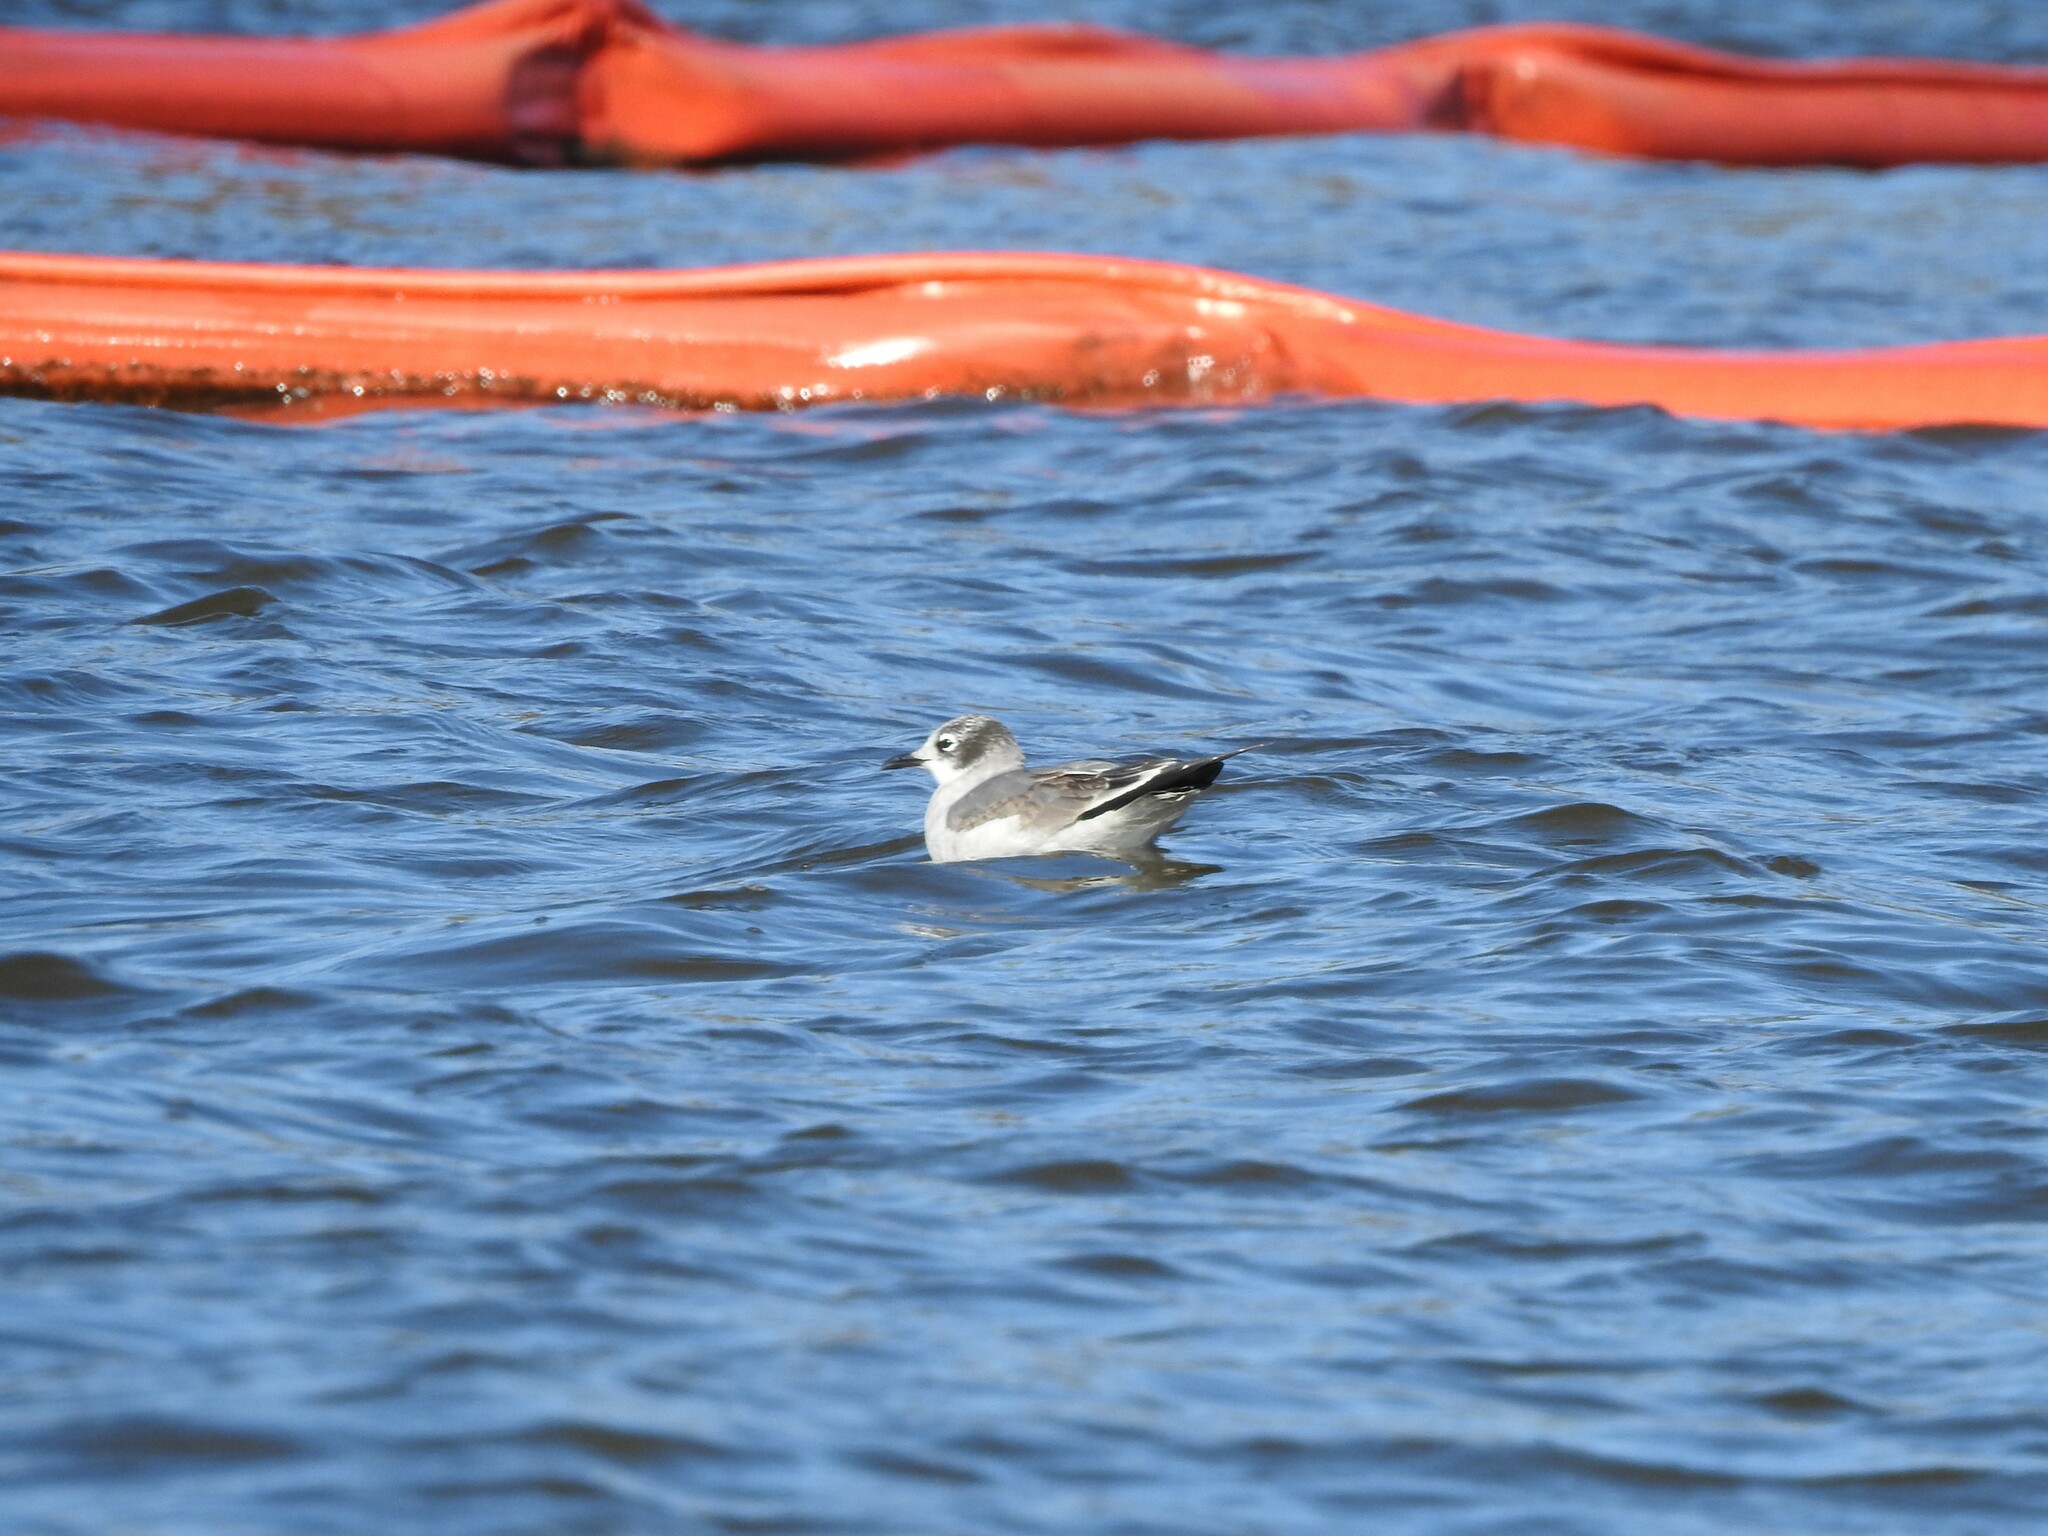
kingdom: Animalia
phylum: Chordata
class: Aves
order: Charadriiformes
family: Laridae
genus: Leucophaeus
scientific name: Leucophaeus pipixcan
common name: Franklin's gull
